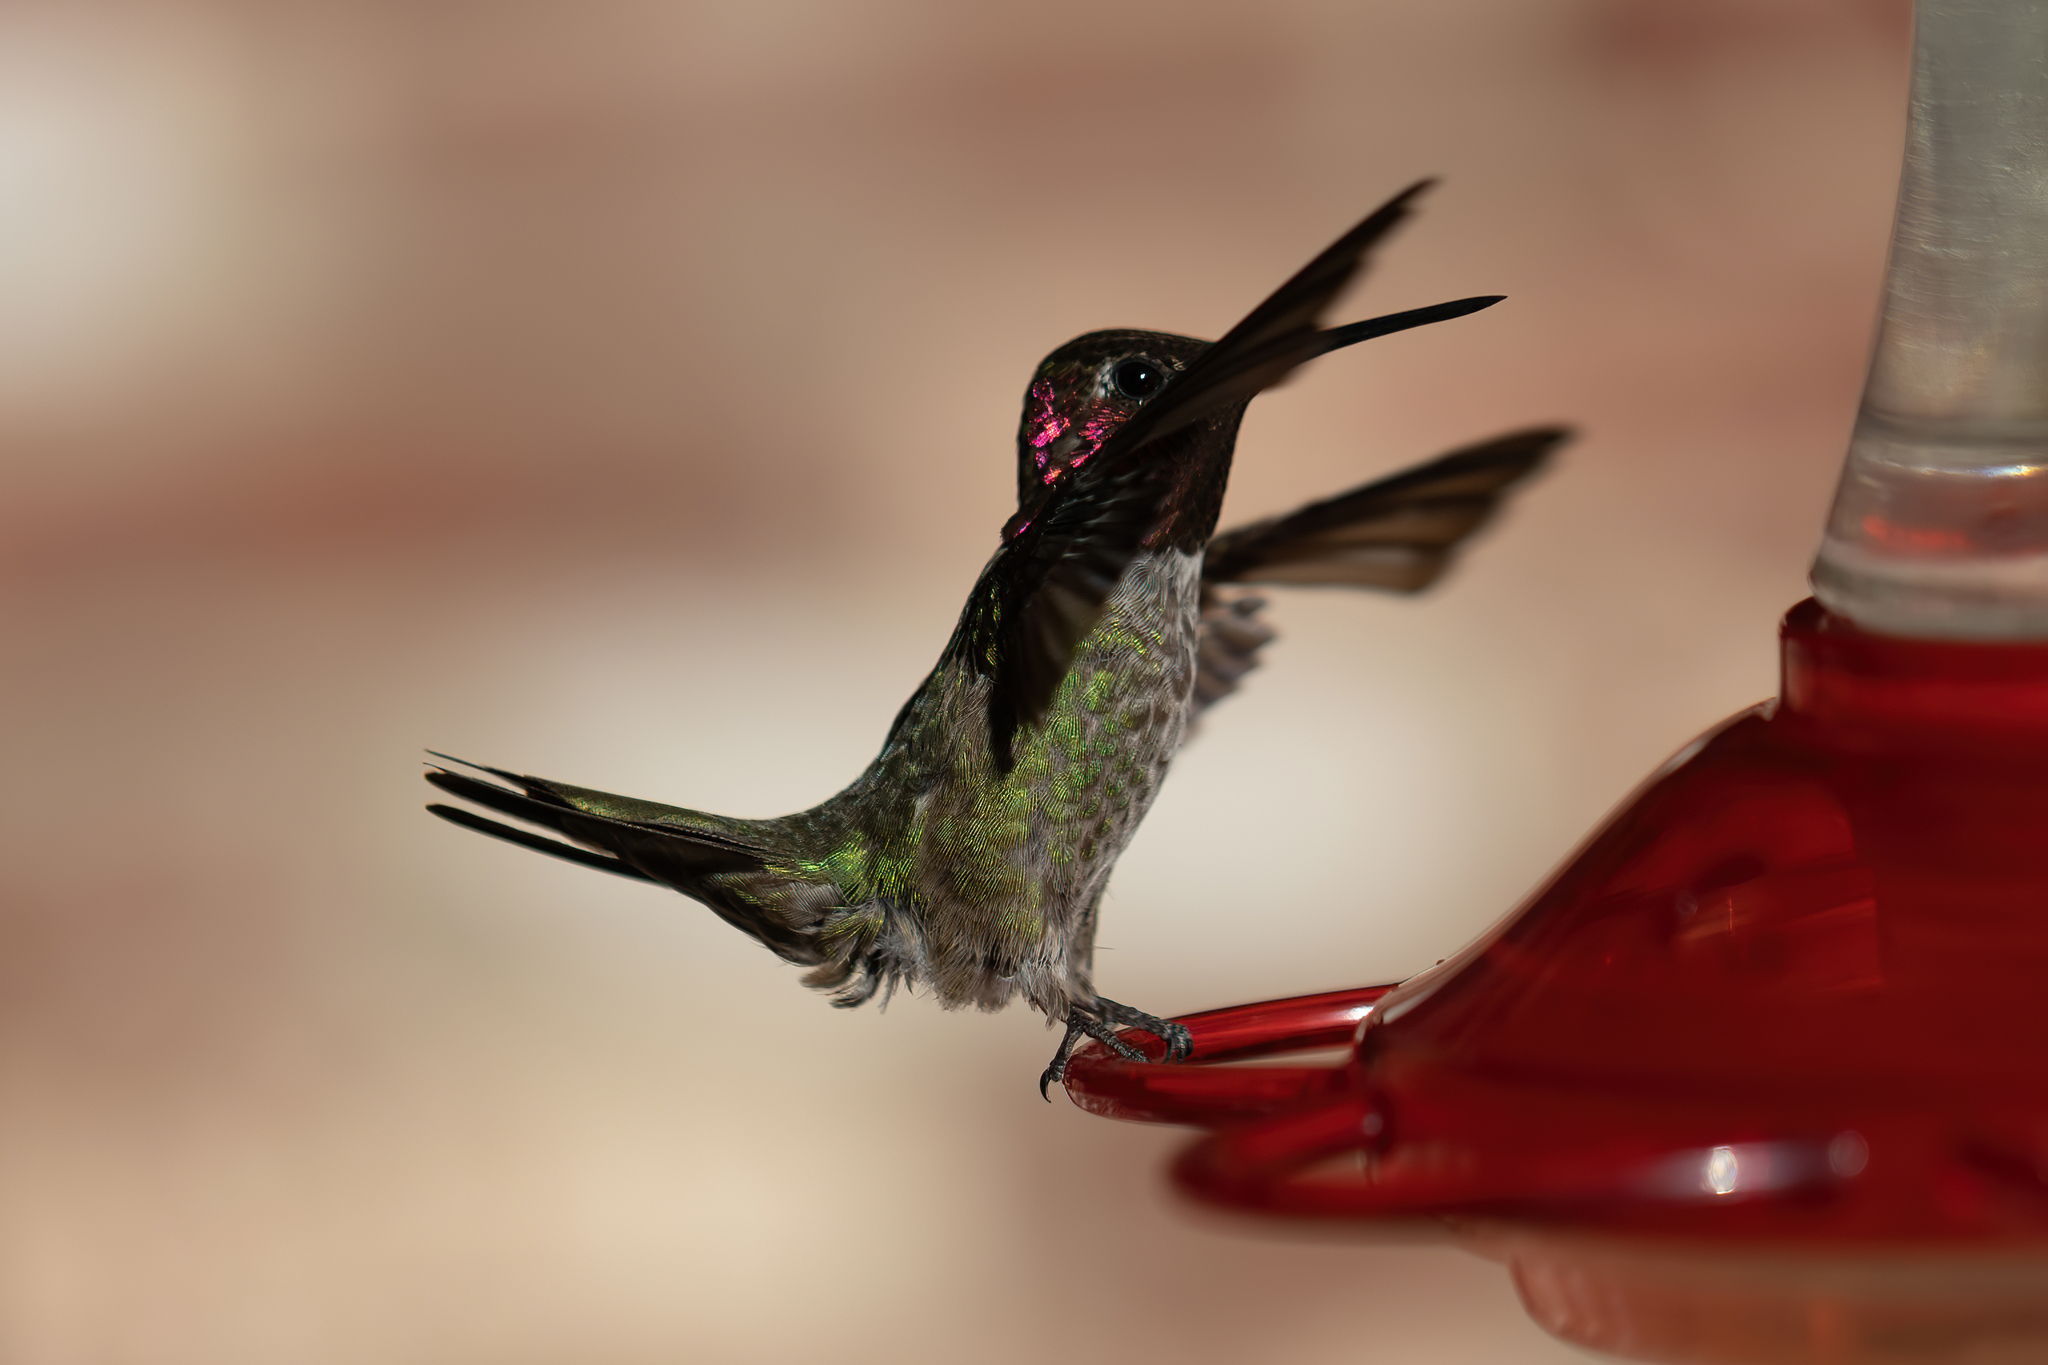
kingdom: Animalia
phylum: Chordata
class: Aves
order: Apodiformes
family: Trochilidae
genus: Calypte
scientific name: Calypte anna
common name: Anna's hummingbird
